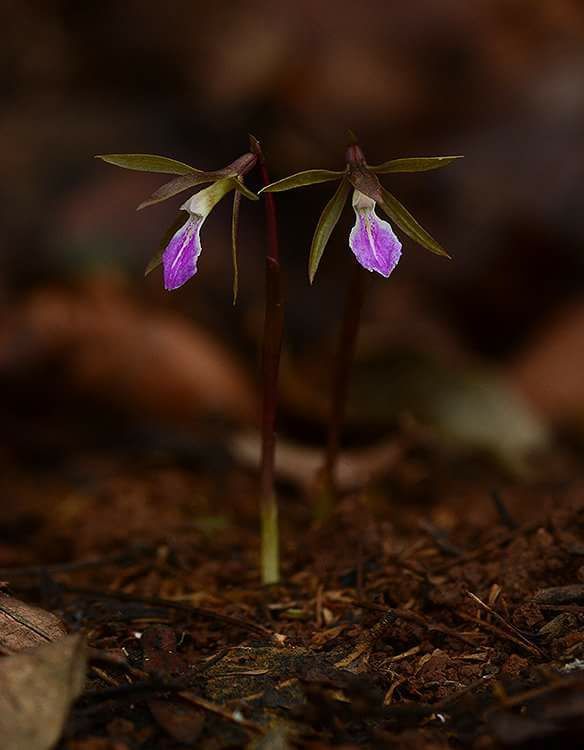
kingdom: Plantae
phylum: Tracheophyta
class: Liliopsida
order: Asparagales
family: Orchidaceae
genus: Nervilia
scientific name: Nervilia infundibulifolia
